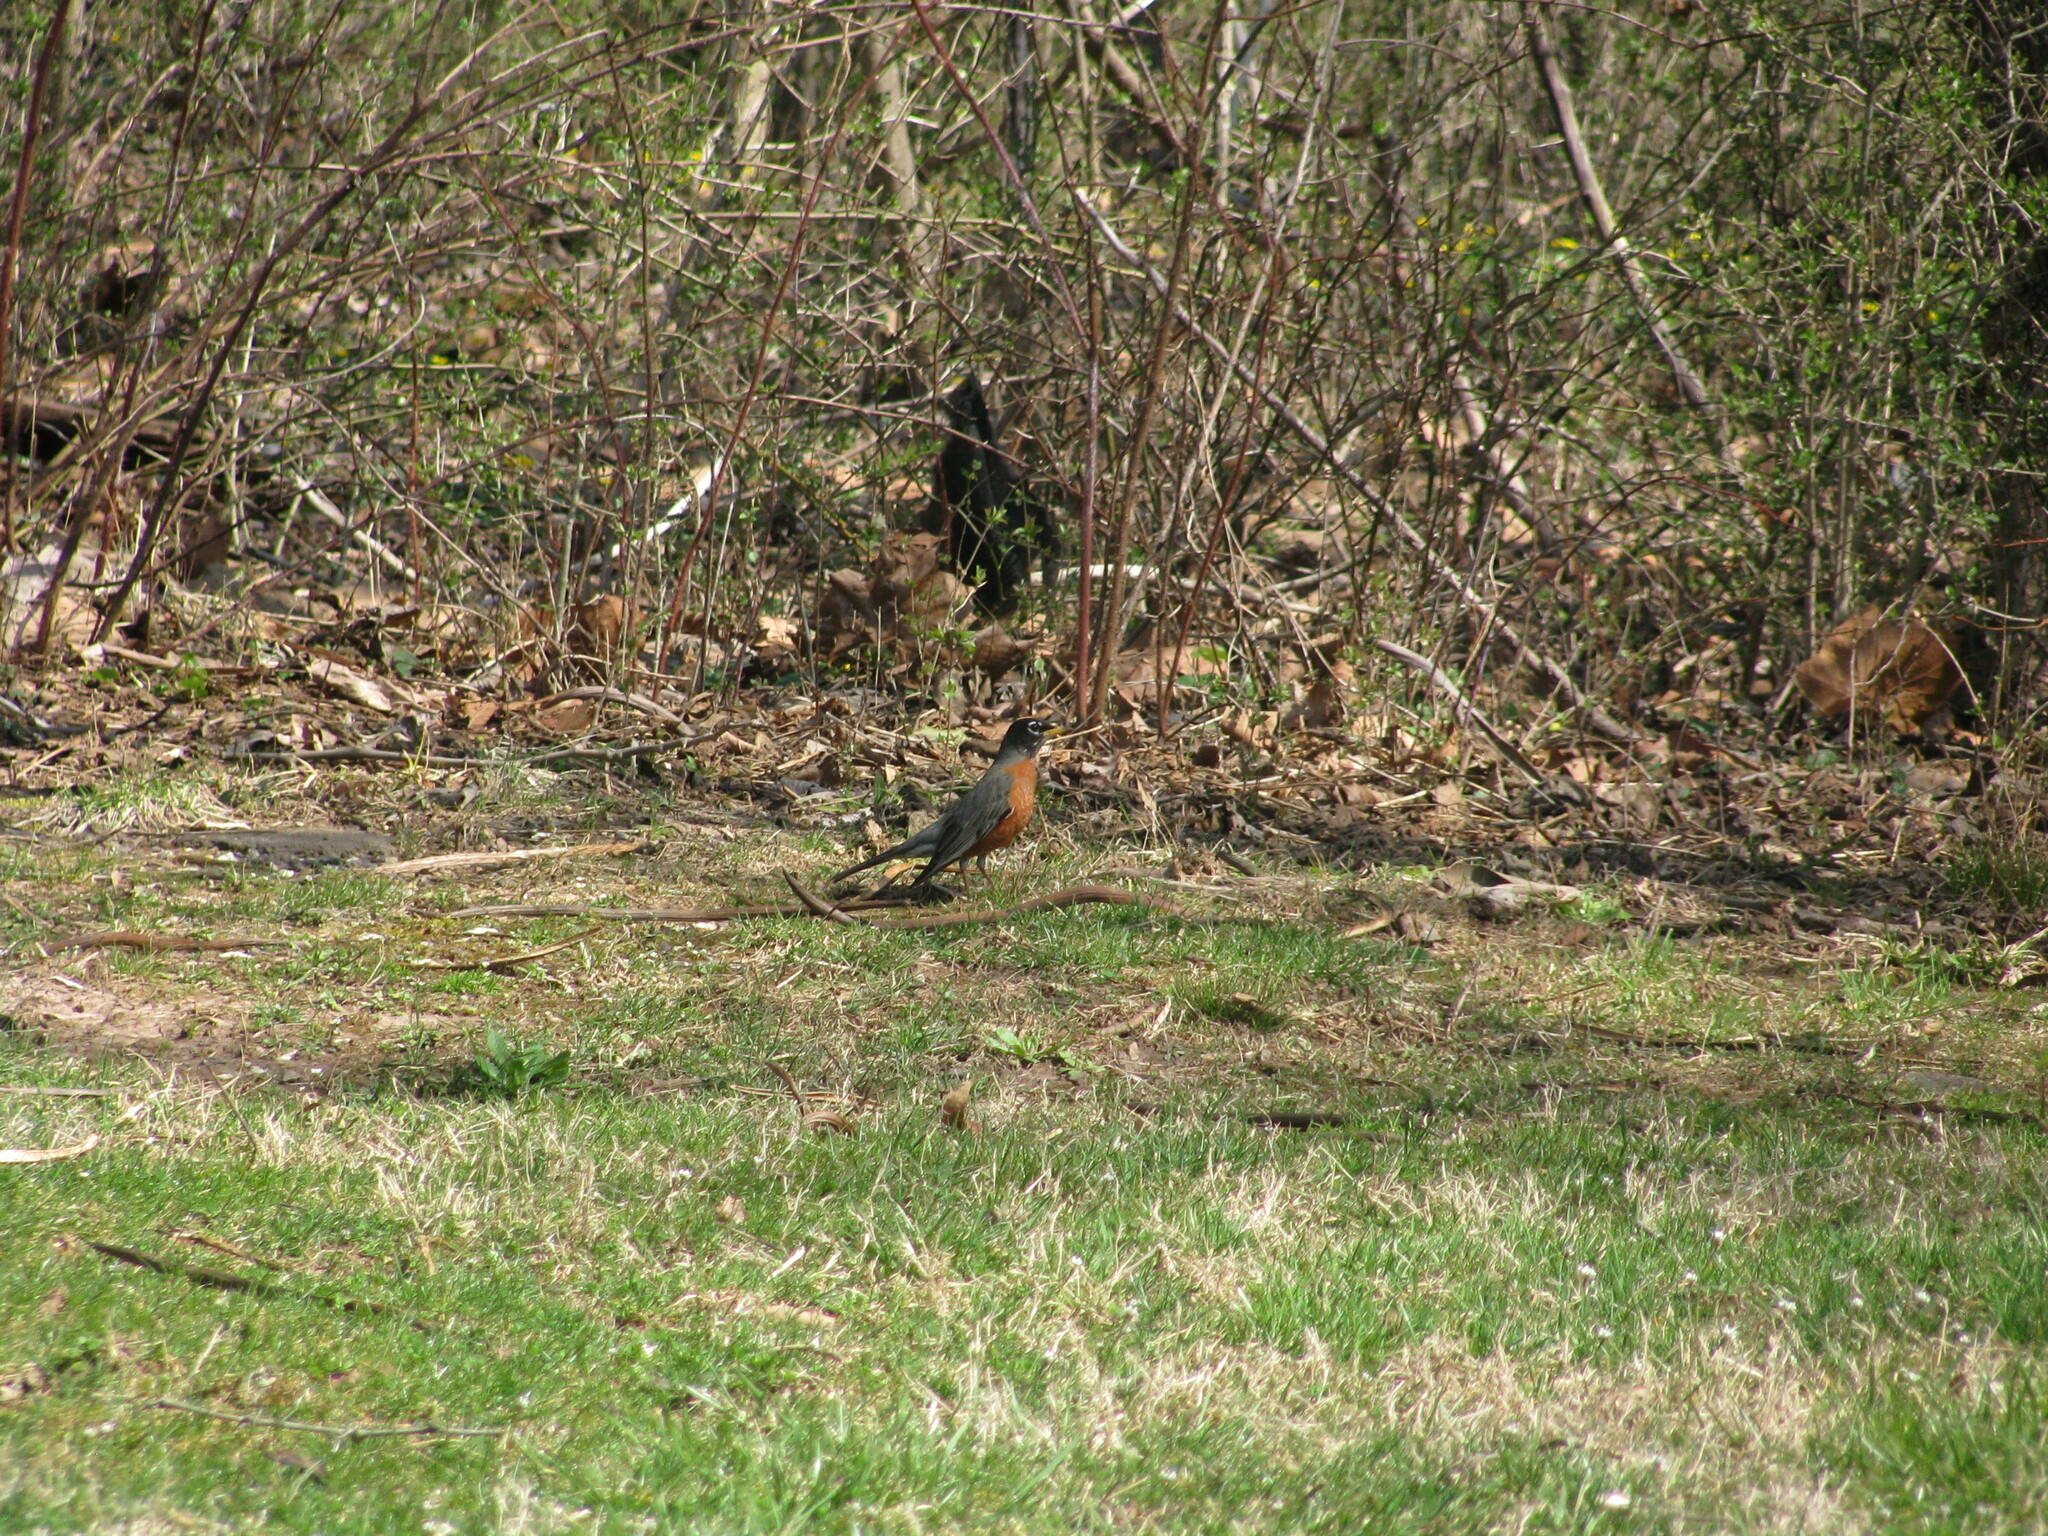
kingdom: Animalia
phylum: Chordata
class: Aves
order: Passeriformes
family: Turdidae
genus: Turdus
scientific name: Turdus migratorius
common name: American robin
